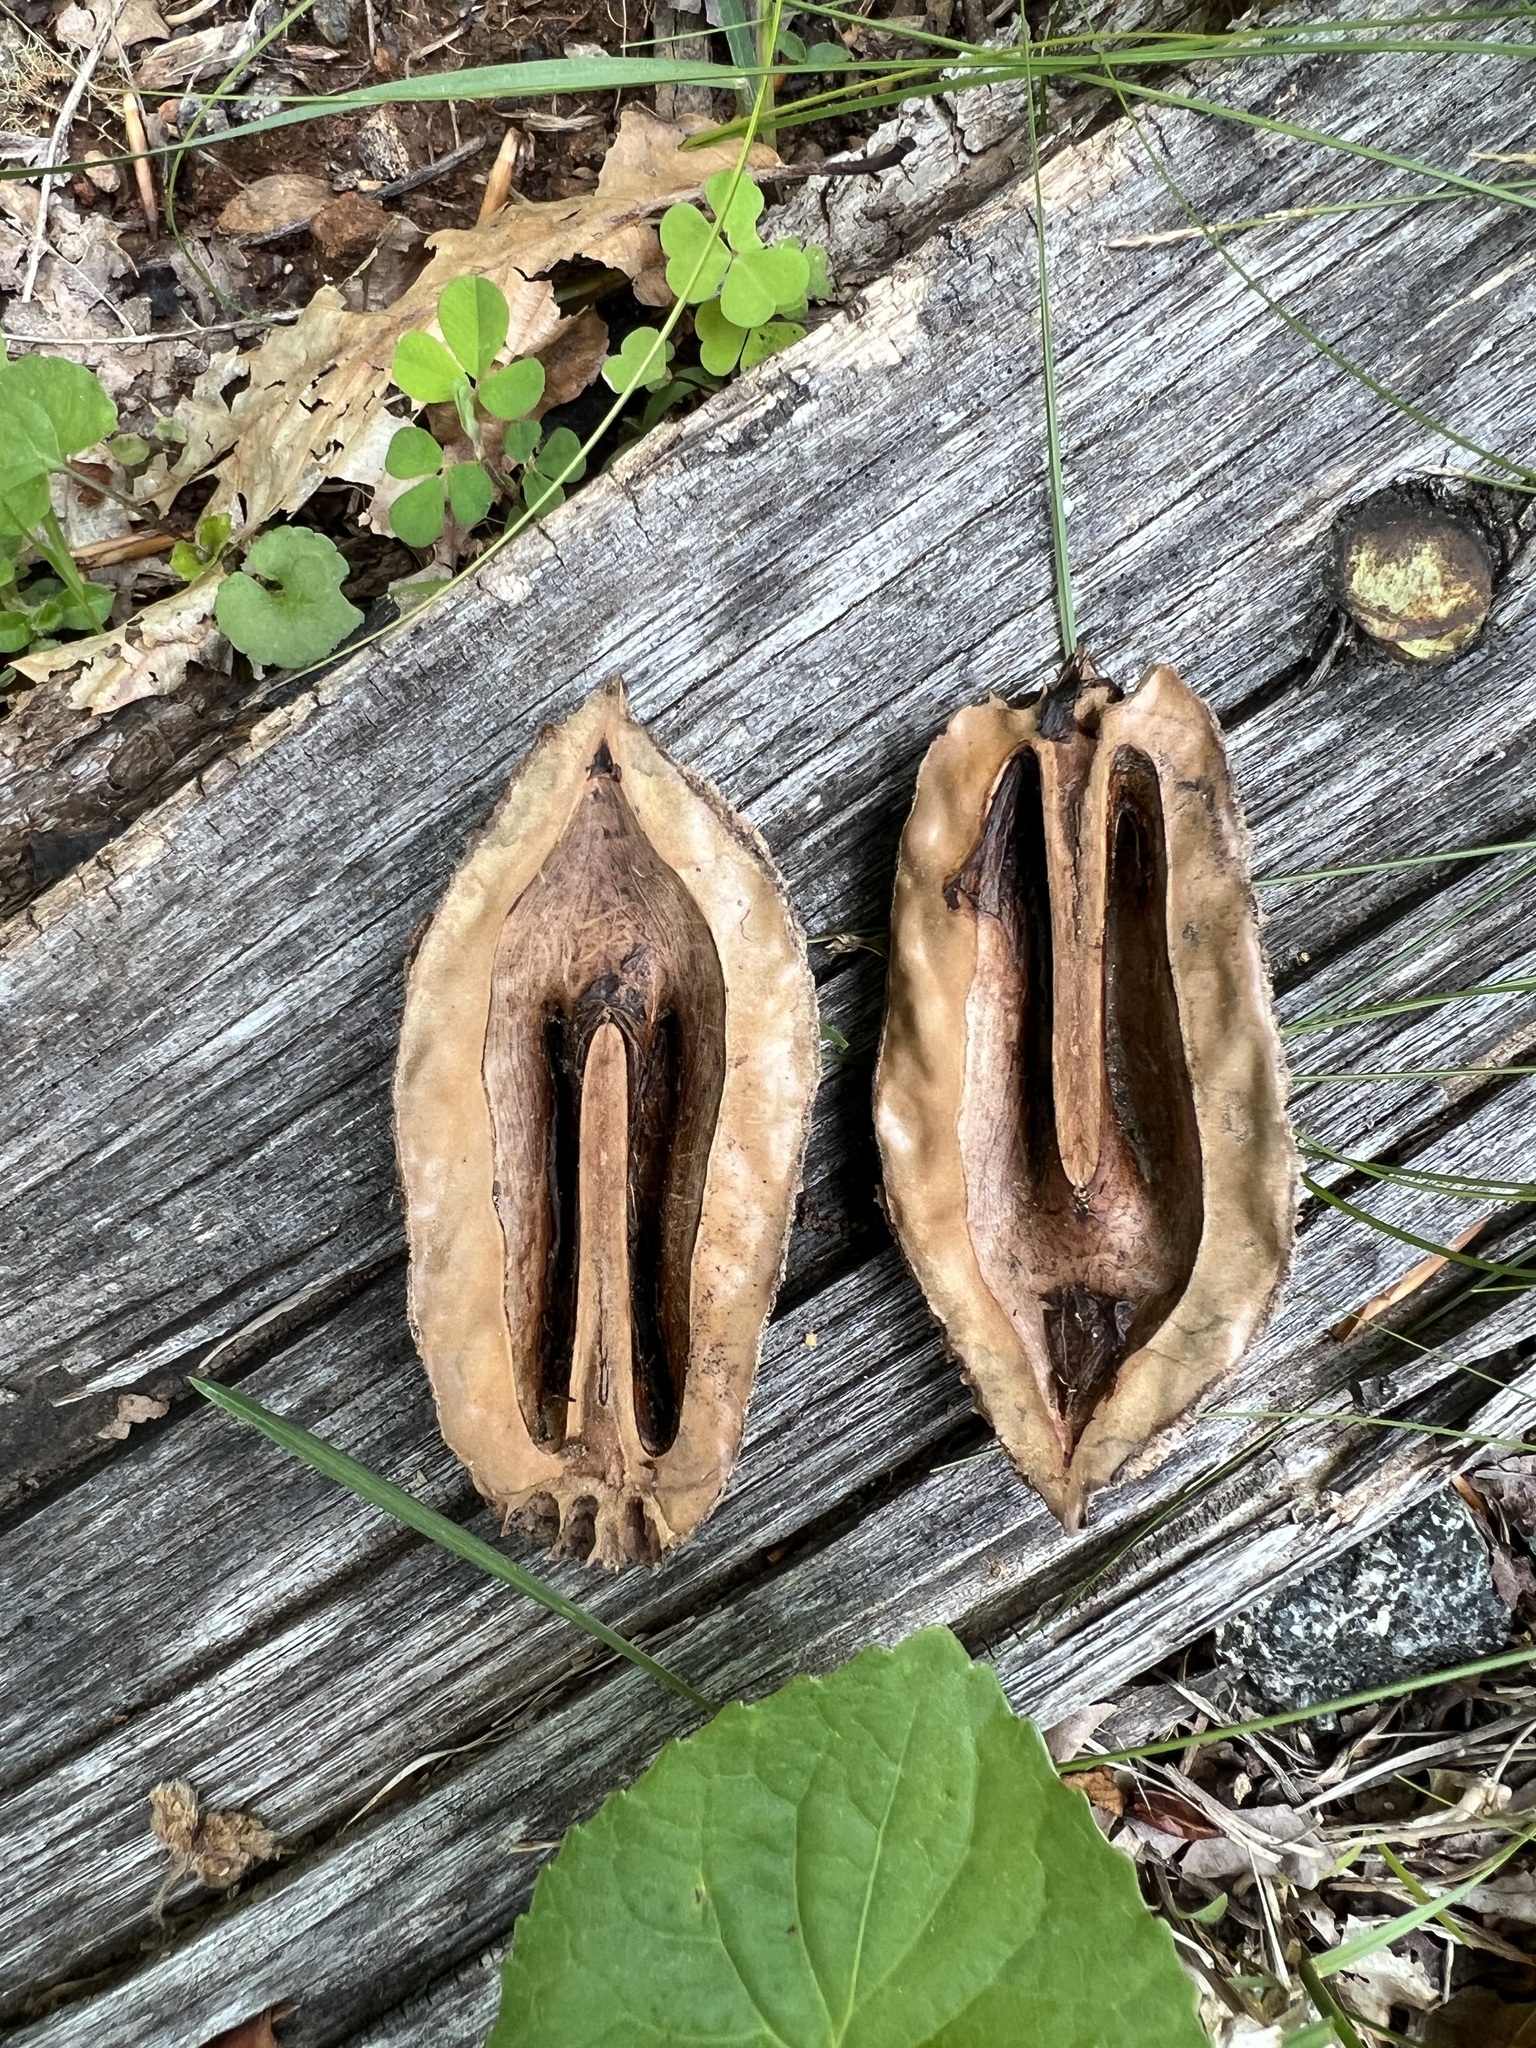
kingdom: Plantae
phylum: Tracheophyta
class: Magnoliopsida
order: Fagales
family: Juglandaceae
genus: Juglans
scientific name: Juglans cinerea
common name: Butternut
